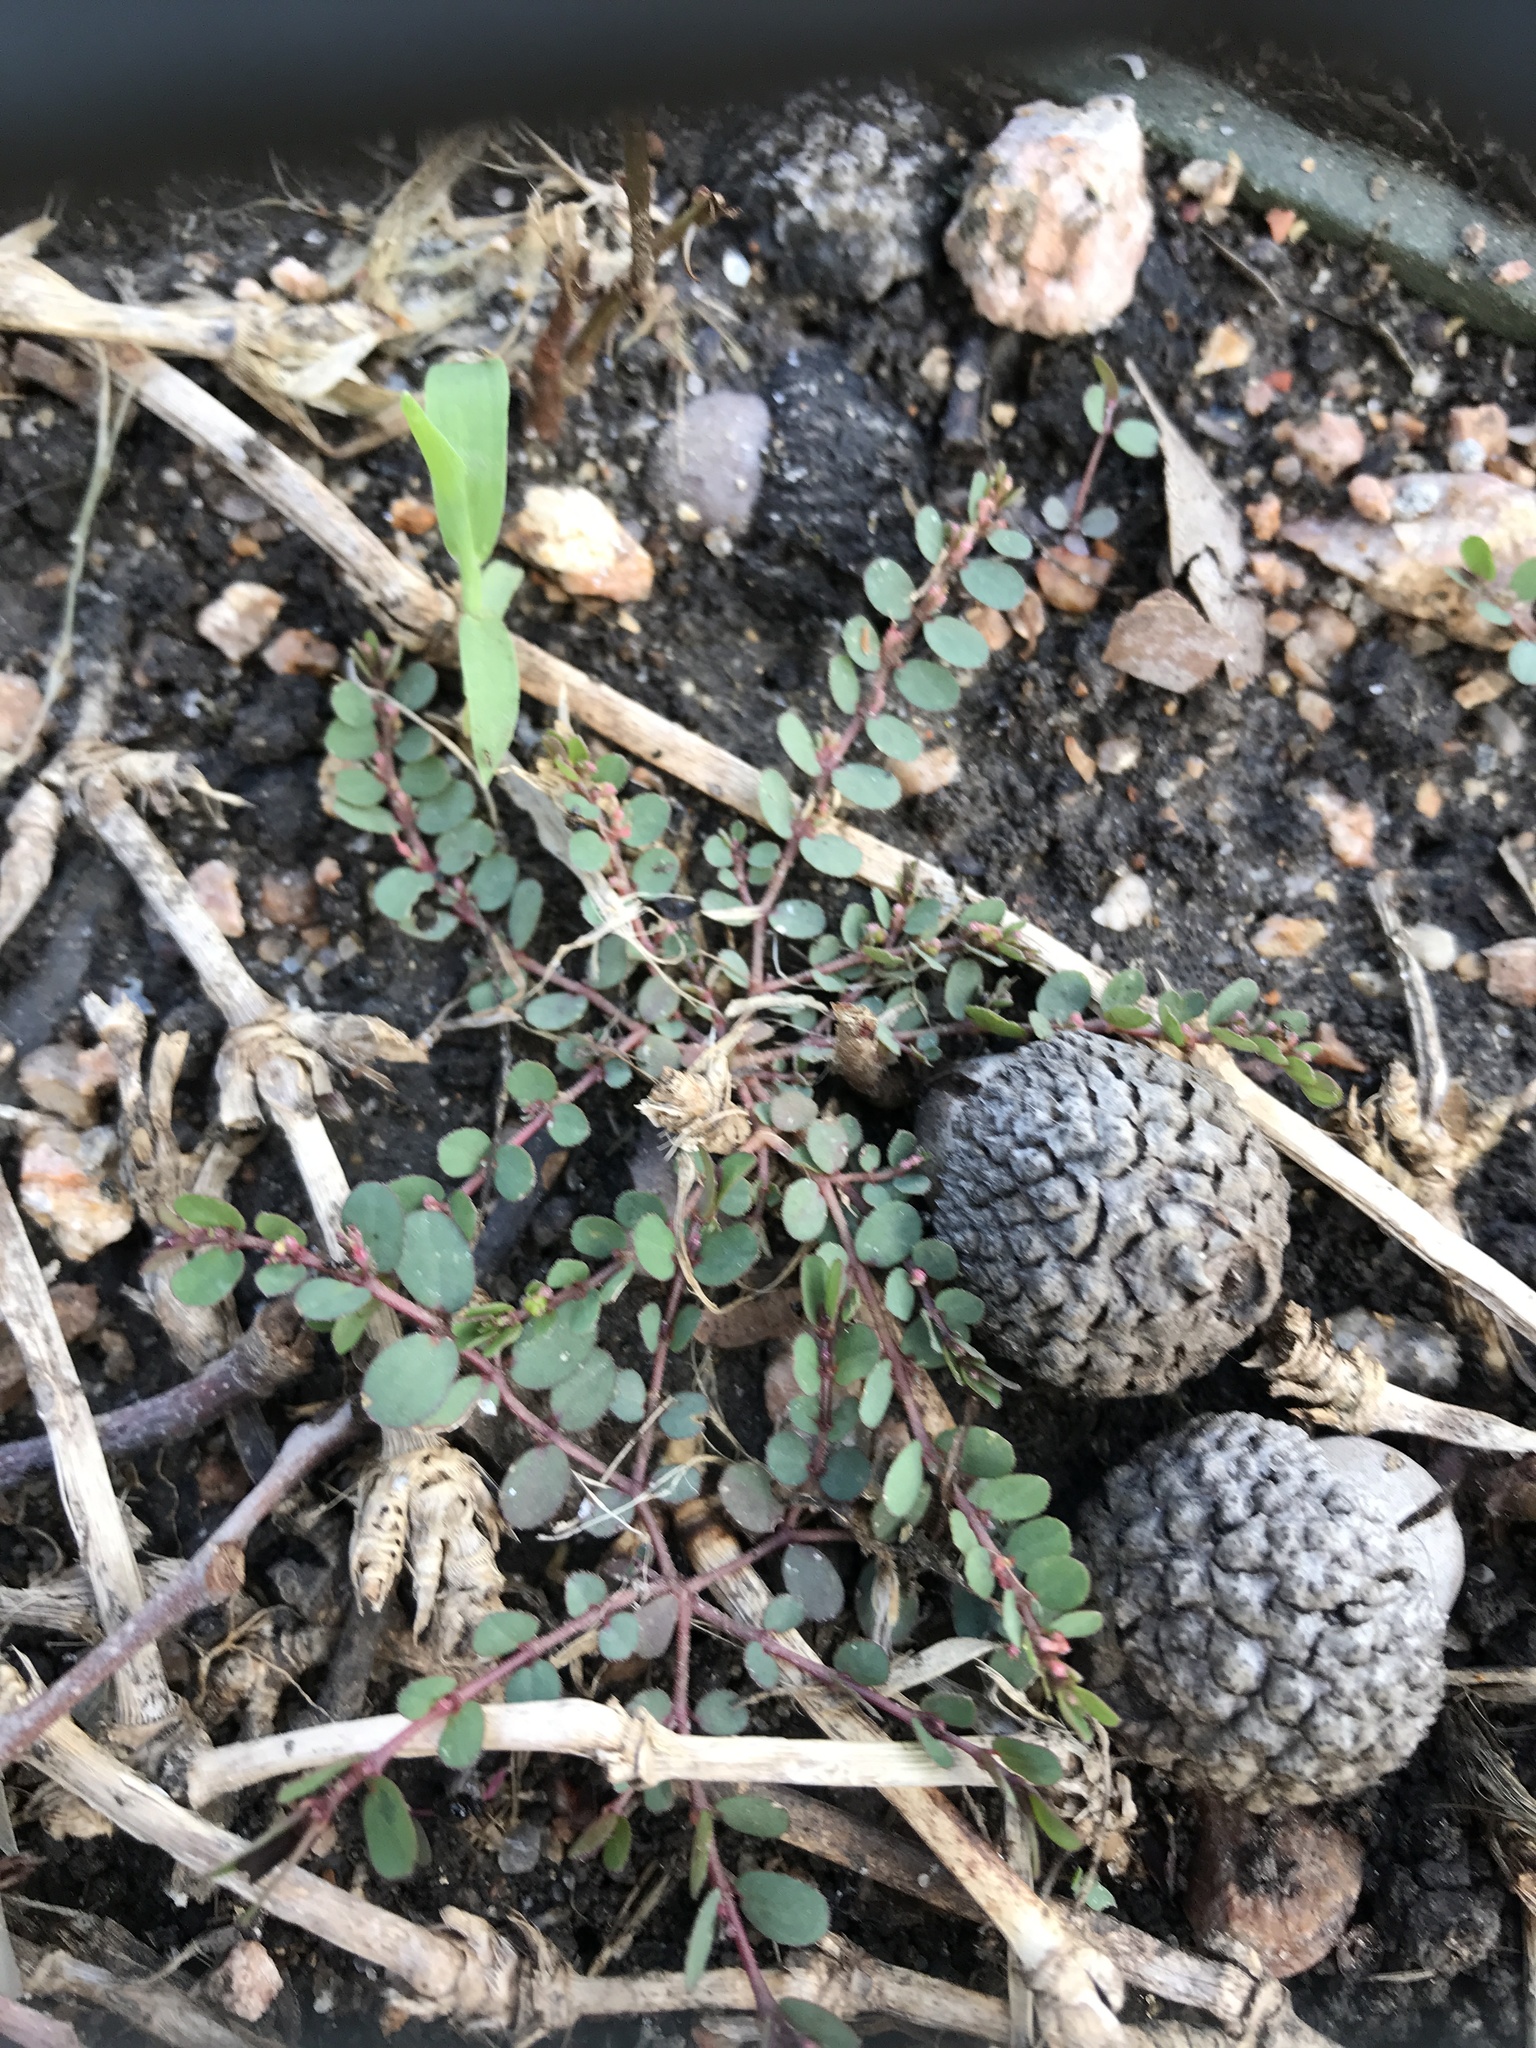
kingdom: Plantae
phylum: Tracheophyta
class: Magnoliopsida
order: Malpighiales
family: Euphorbiaceae
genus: Euphorbia
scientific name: Euphorbia prostrata
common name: Prostrate sandmat
